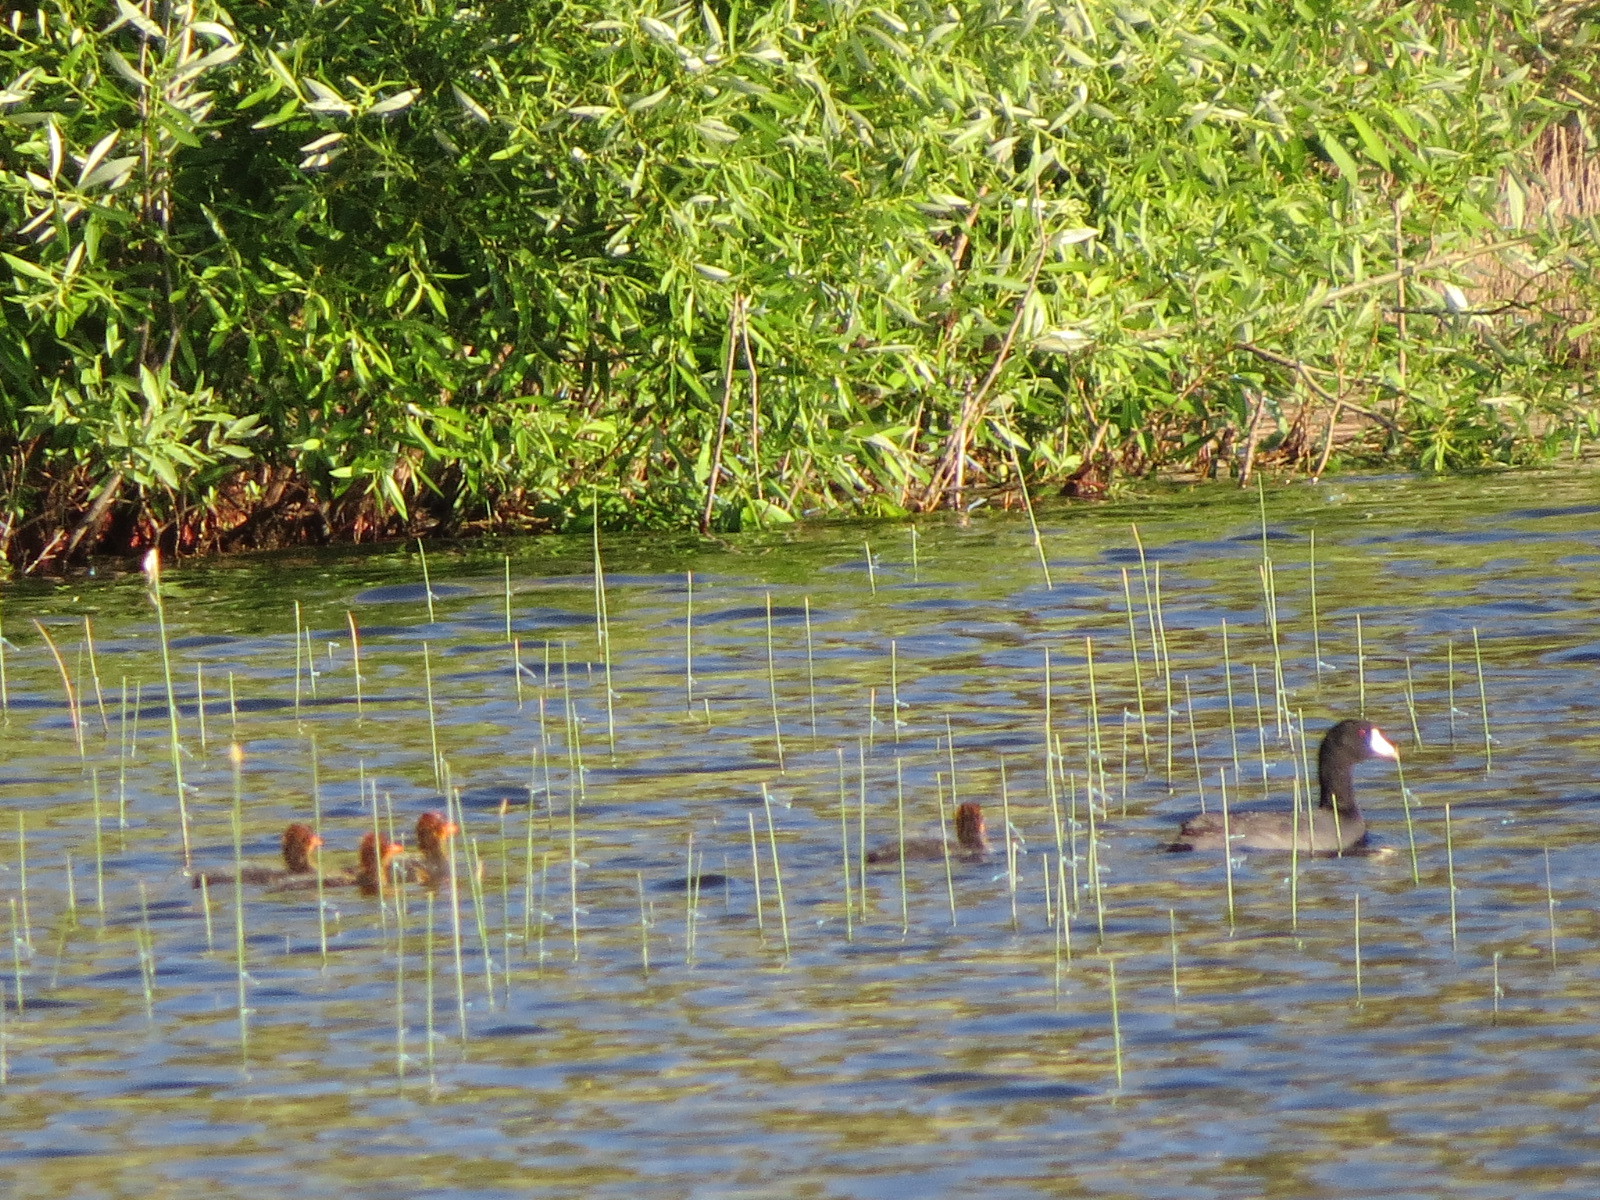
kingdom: Animalia
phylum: Chordata
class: Aves
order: Gruiformes
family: Rallidae
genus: Fulica
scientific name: Fulica americana
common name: American coot
